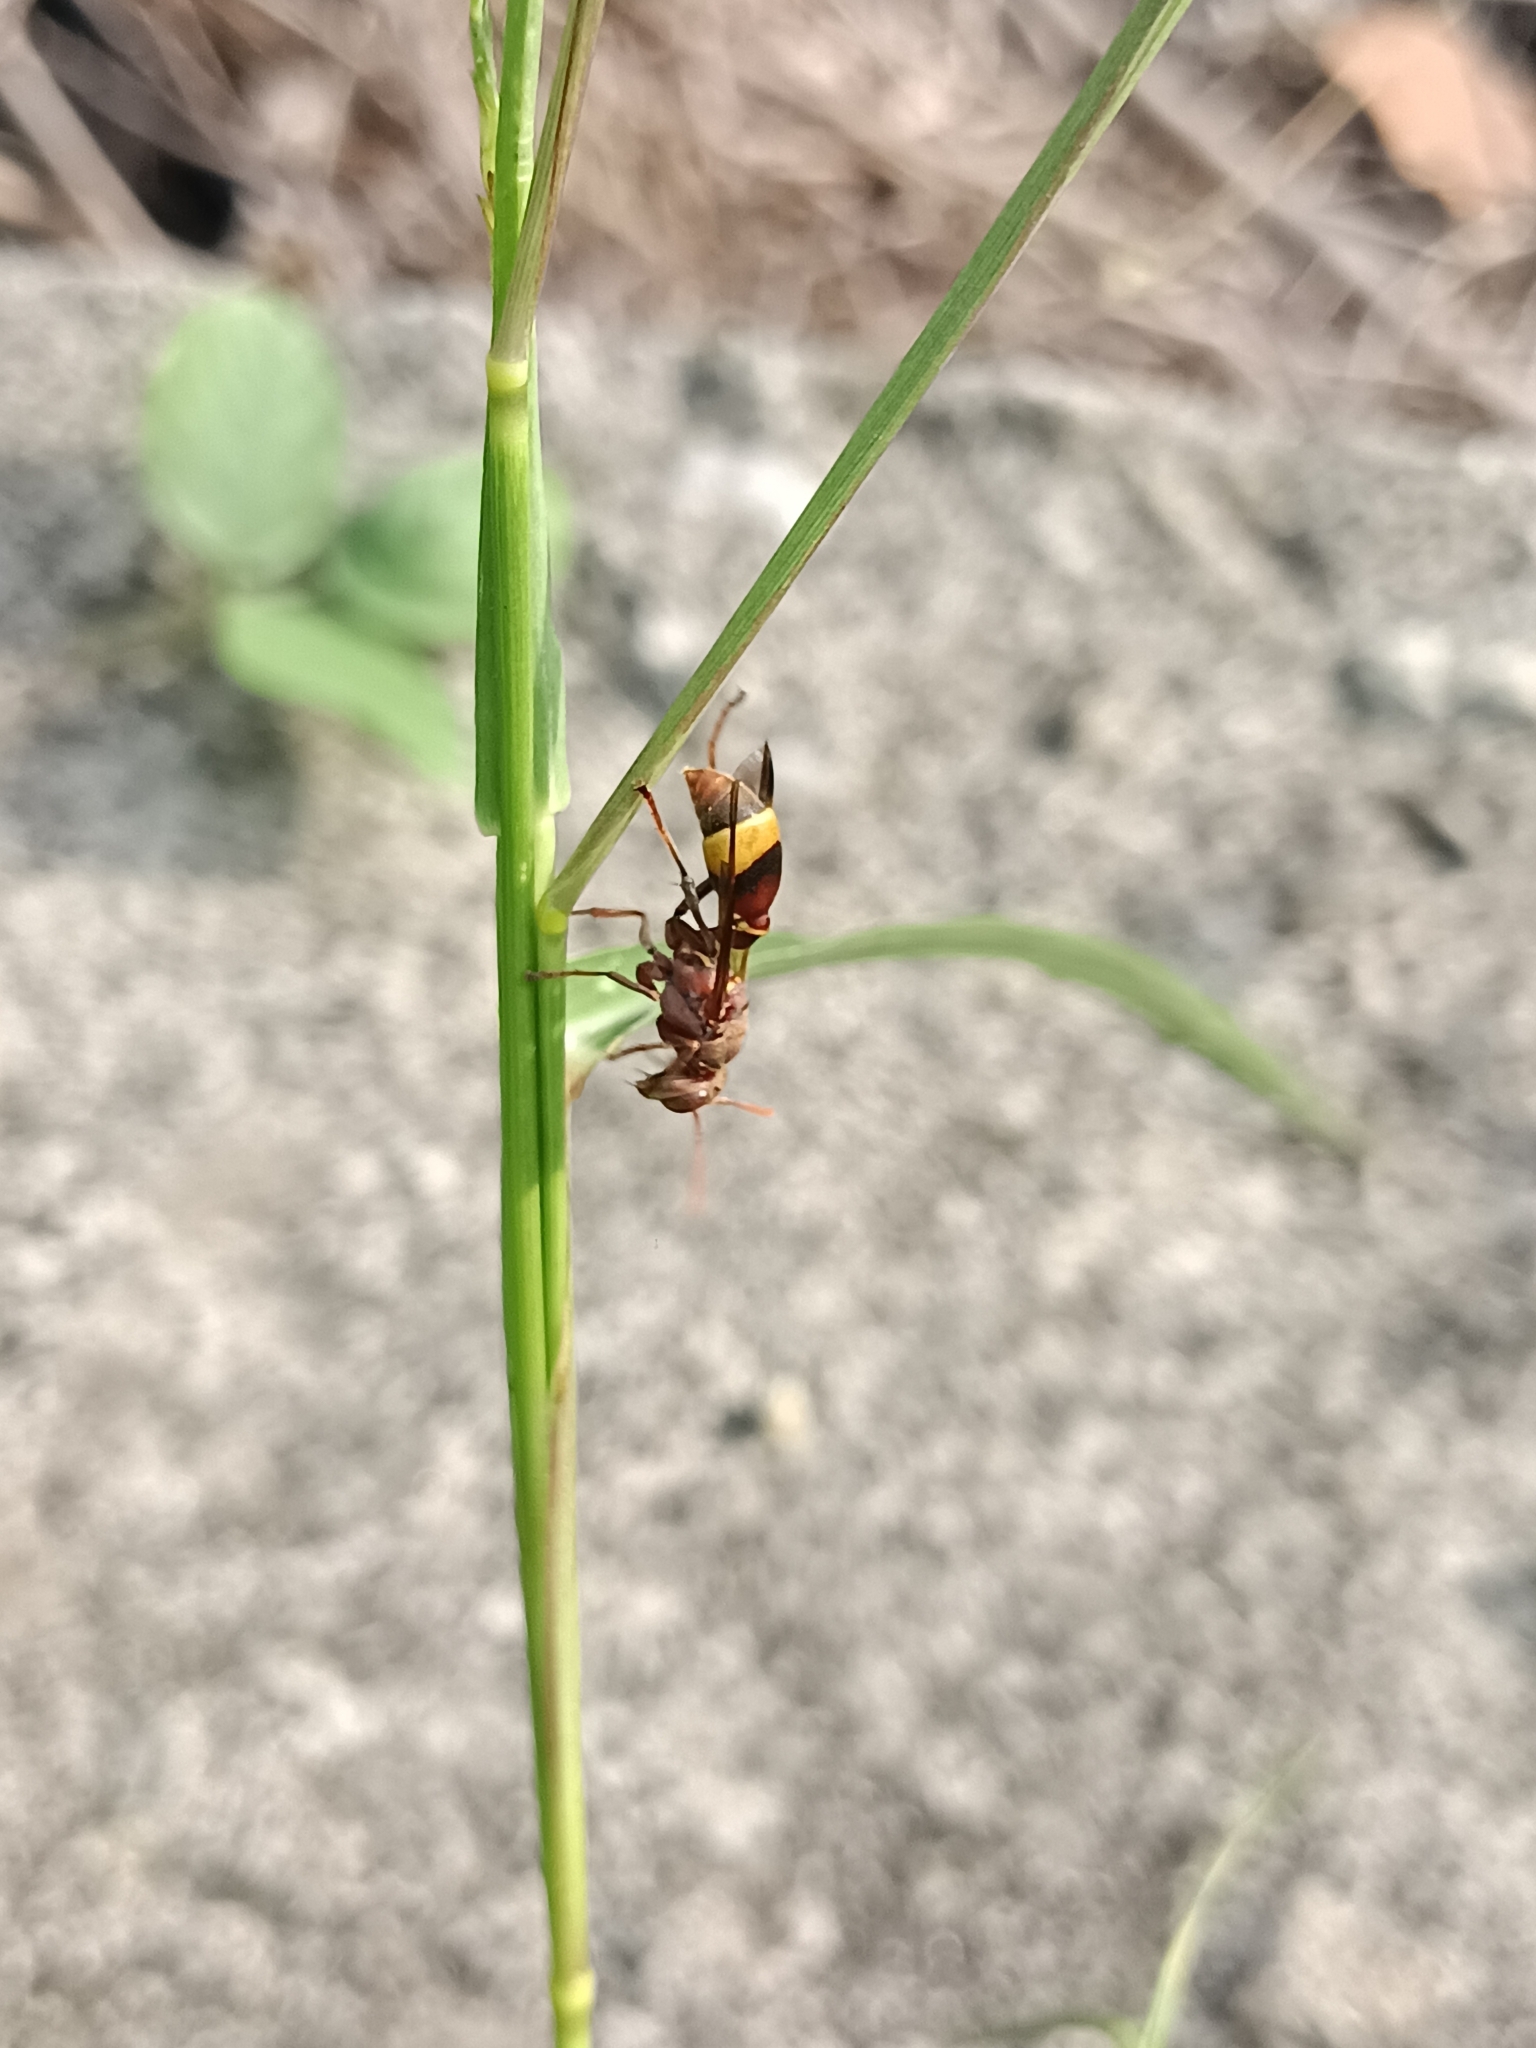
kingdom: Animalia
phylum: Arthropoda
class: Insecta
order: Hymenoptera
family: Vespidae
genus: Ropalidia
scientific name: Ropalidia
